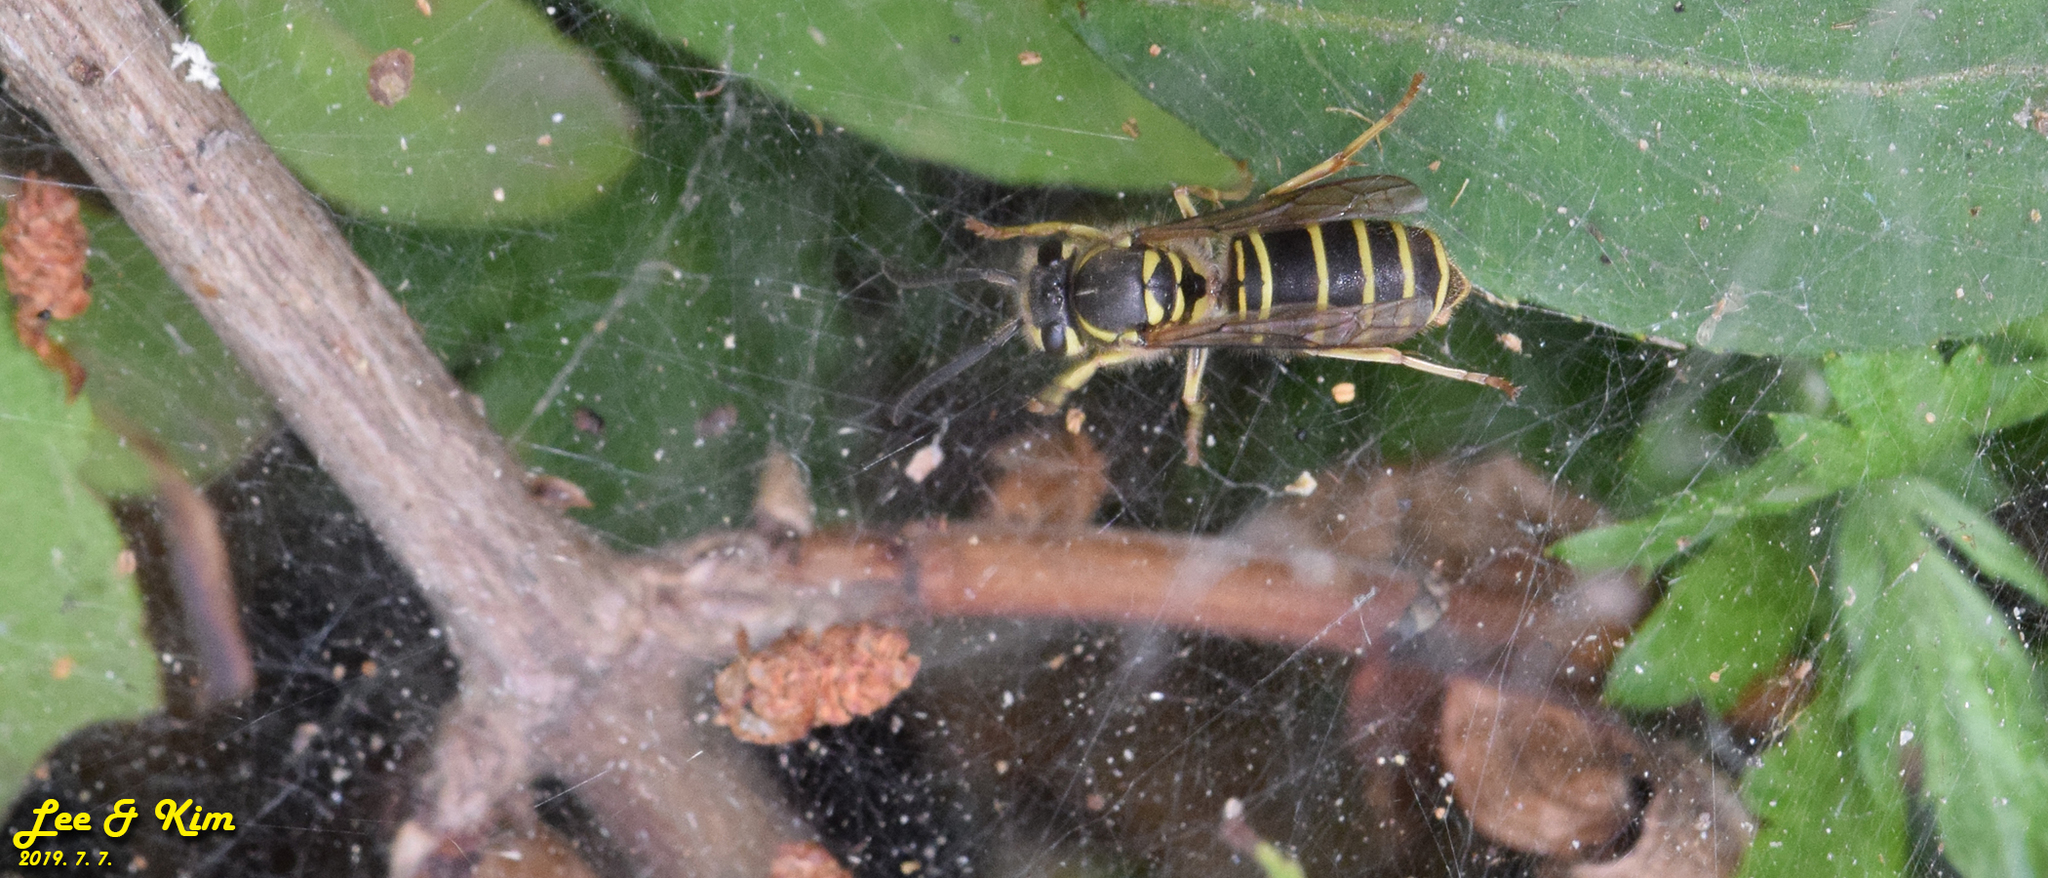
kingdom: Animalia
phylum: Arthropoda
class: Insecta
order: Hymenoptera
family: Vespidae
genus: Vespula
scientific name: Vespula flaviceps
